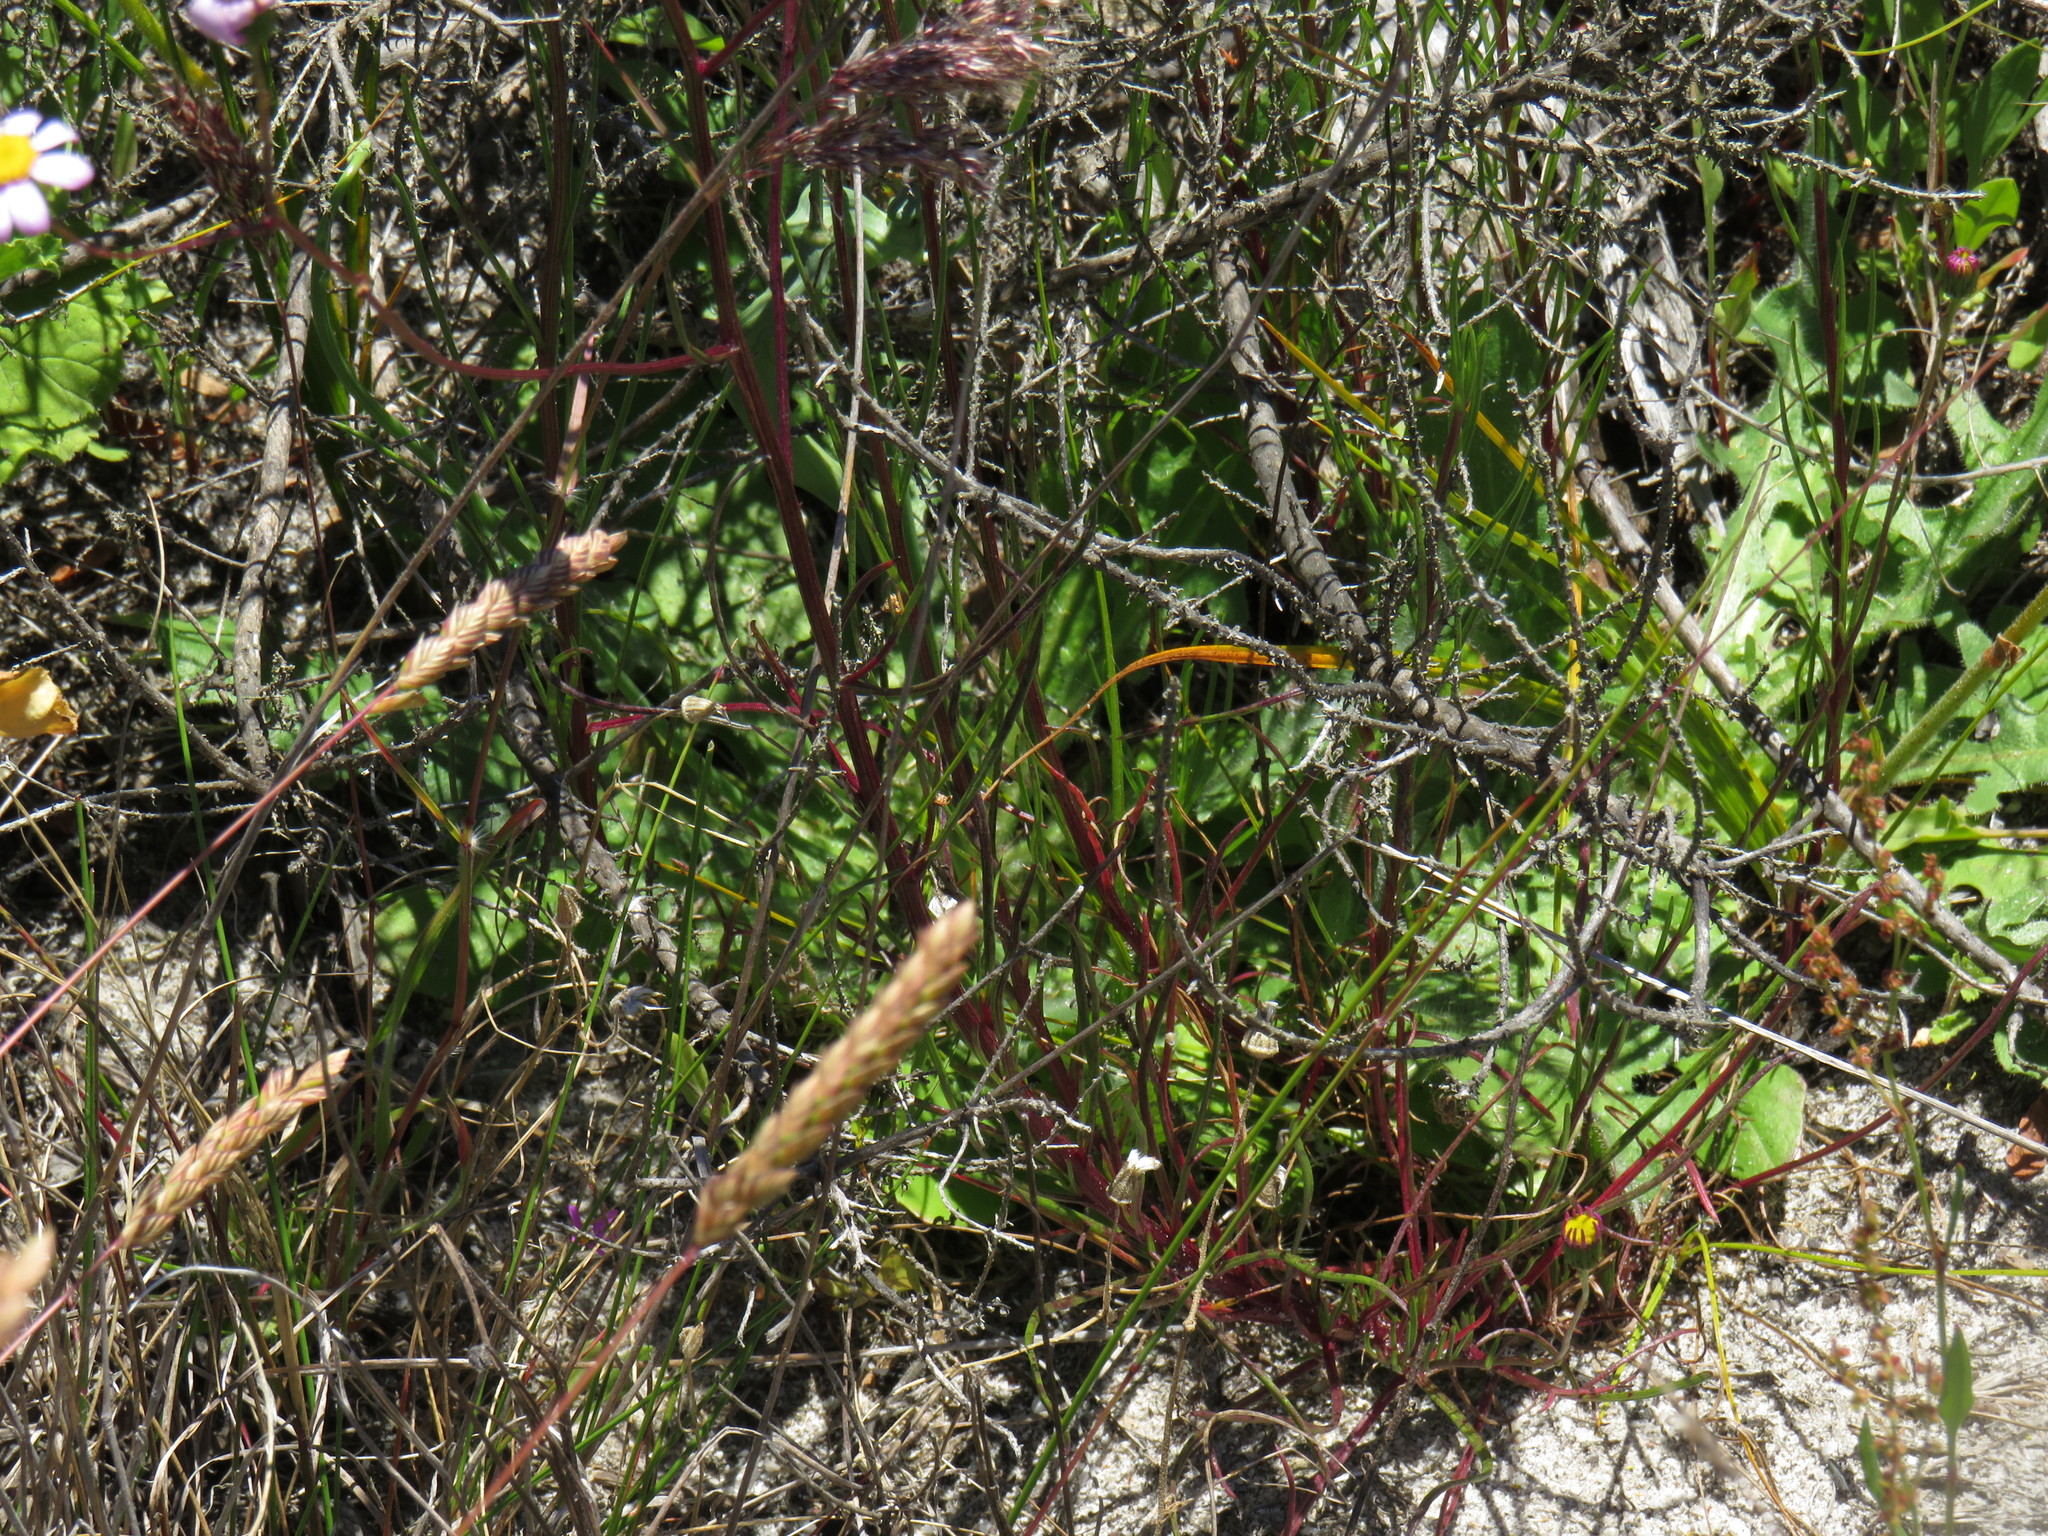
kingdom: Plantae
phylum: Tracheophyta
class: Magnoliopsida
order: Asterales
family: Asteraceae
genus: Senecio
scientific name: Senecio umbellatus
